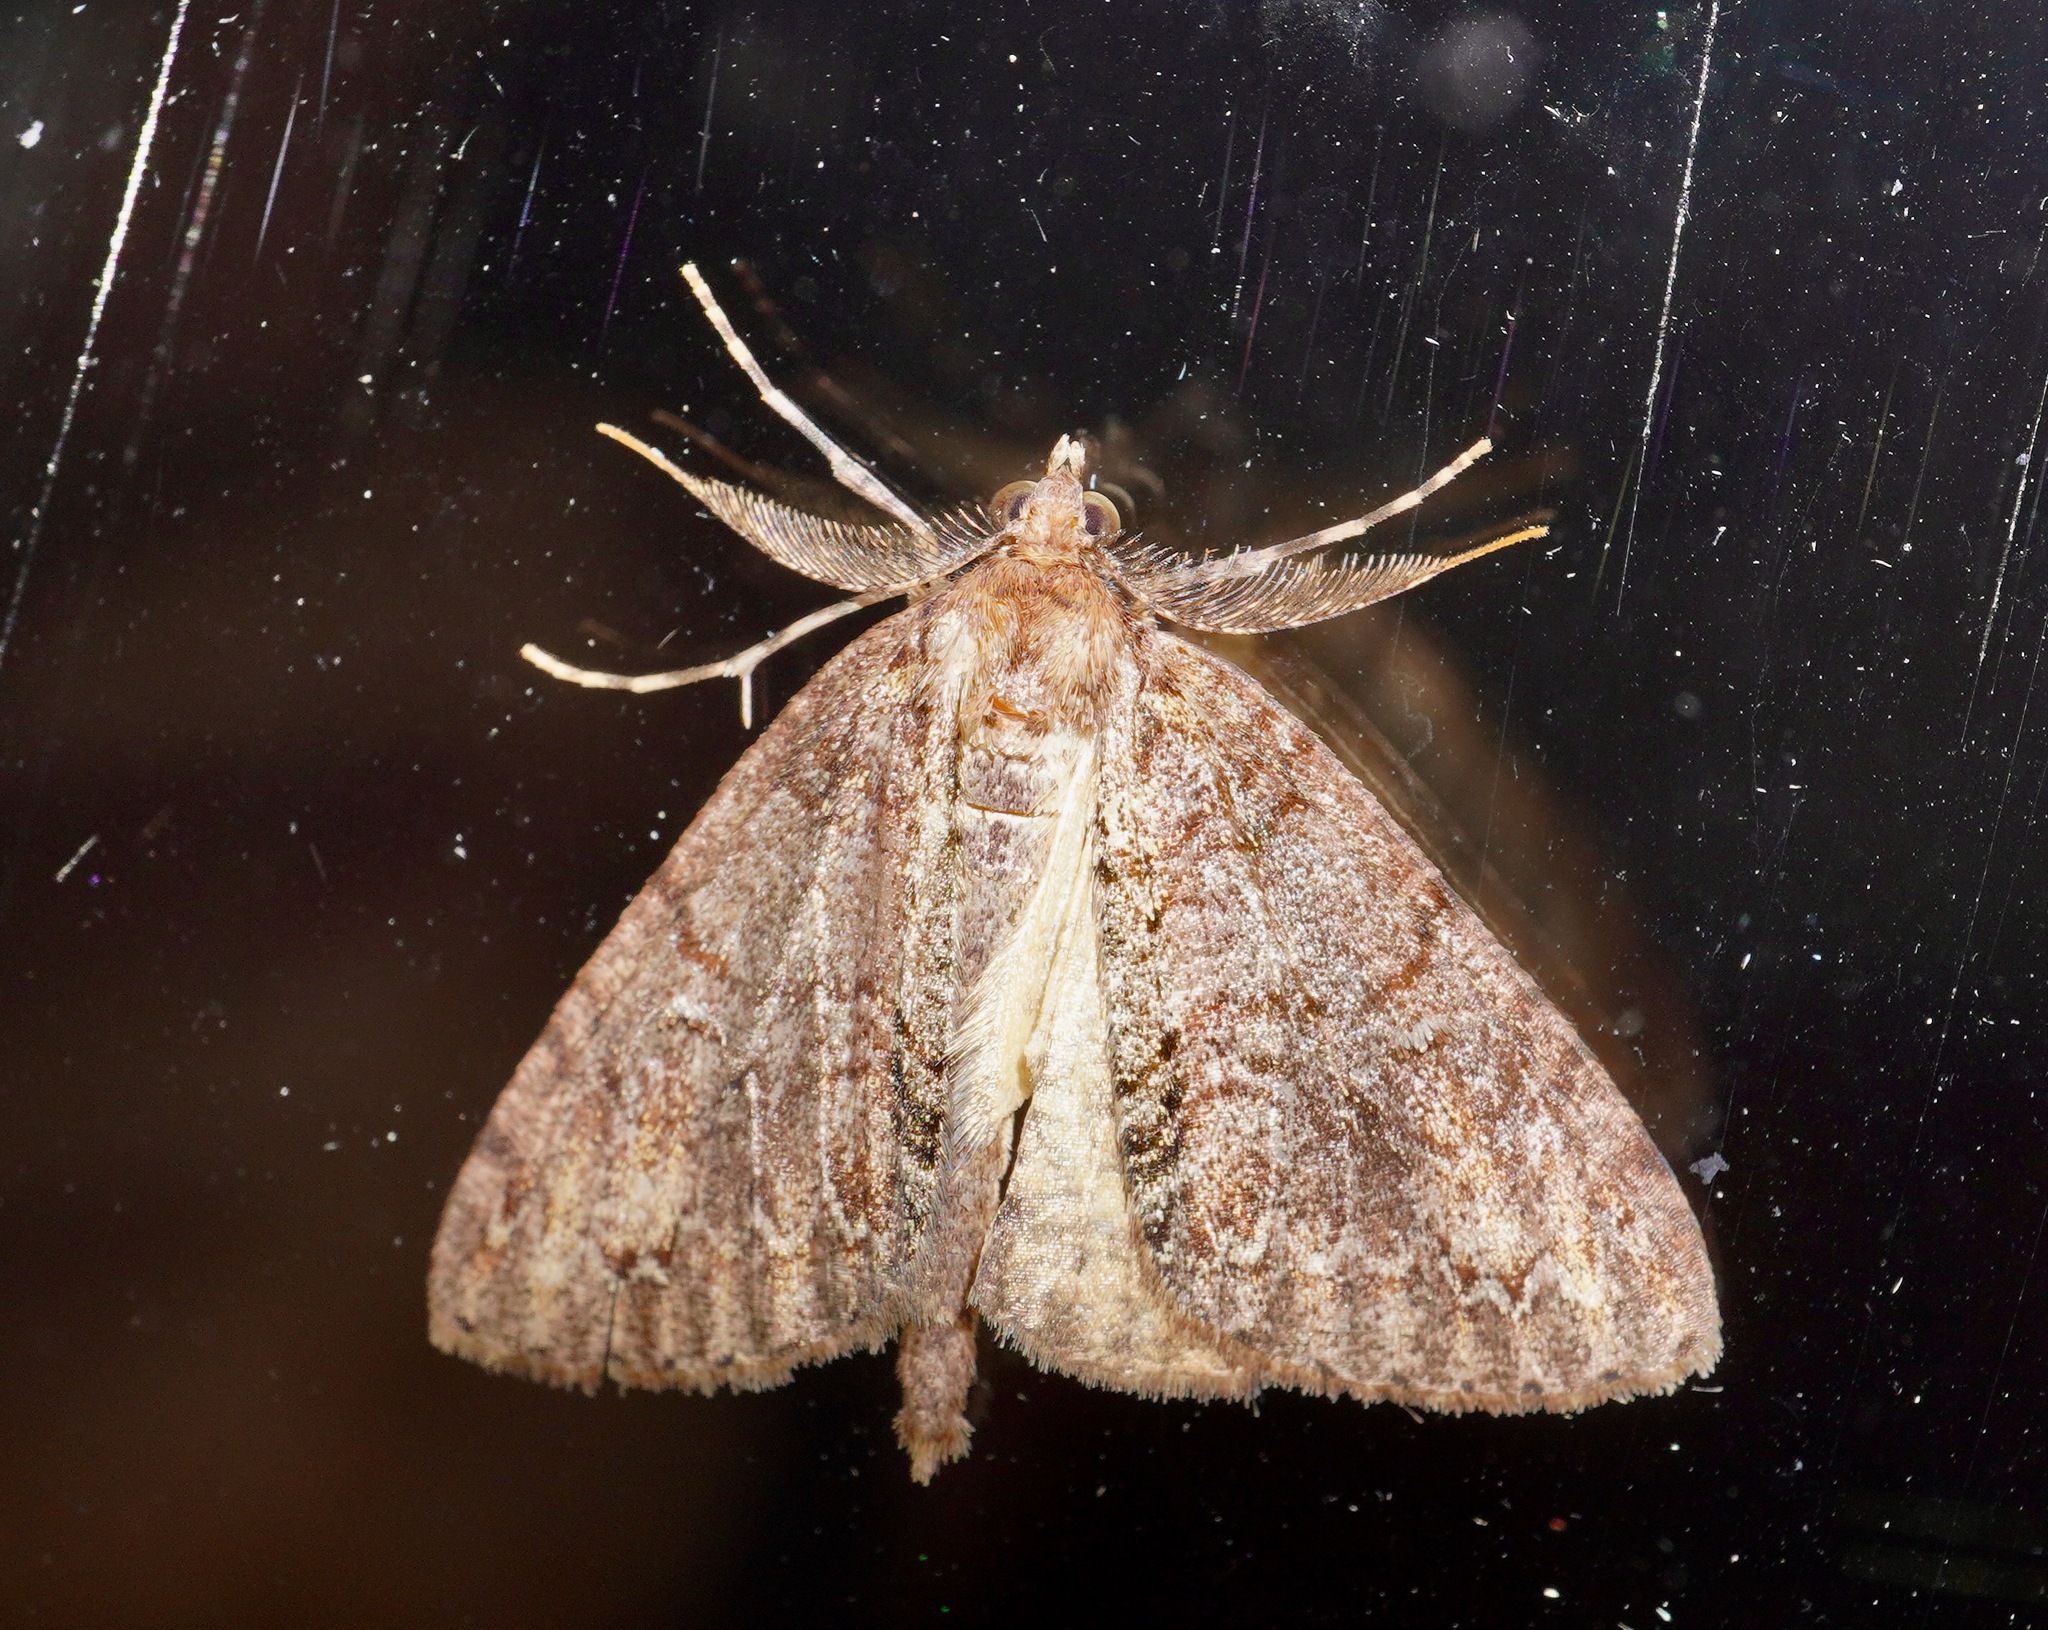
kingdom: Animalia
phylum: Arthropoda
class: Insecta
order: Lepidoptera
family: Geometridae
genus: Pseudocoremia
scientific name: Pseudocoremia suavis
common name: Common forest looper
